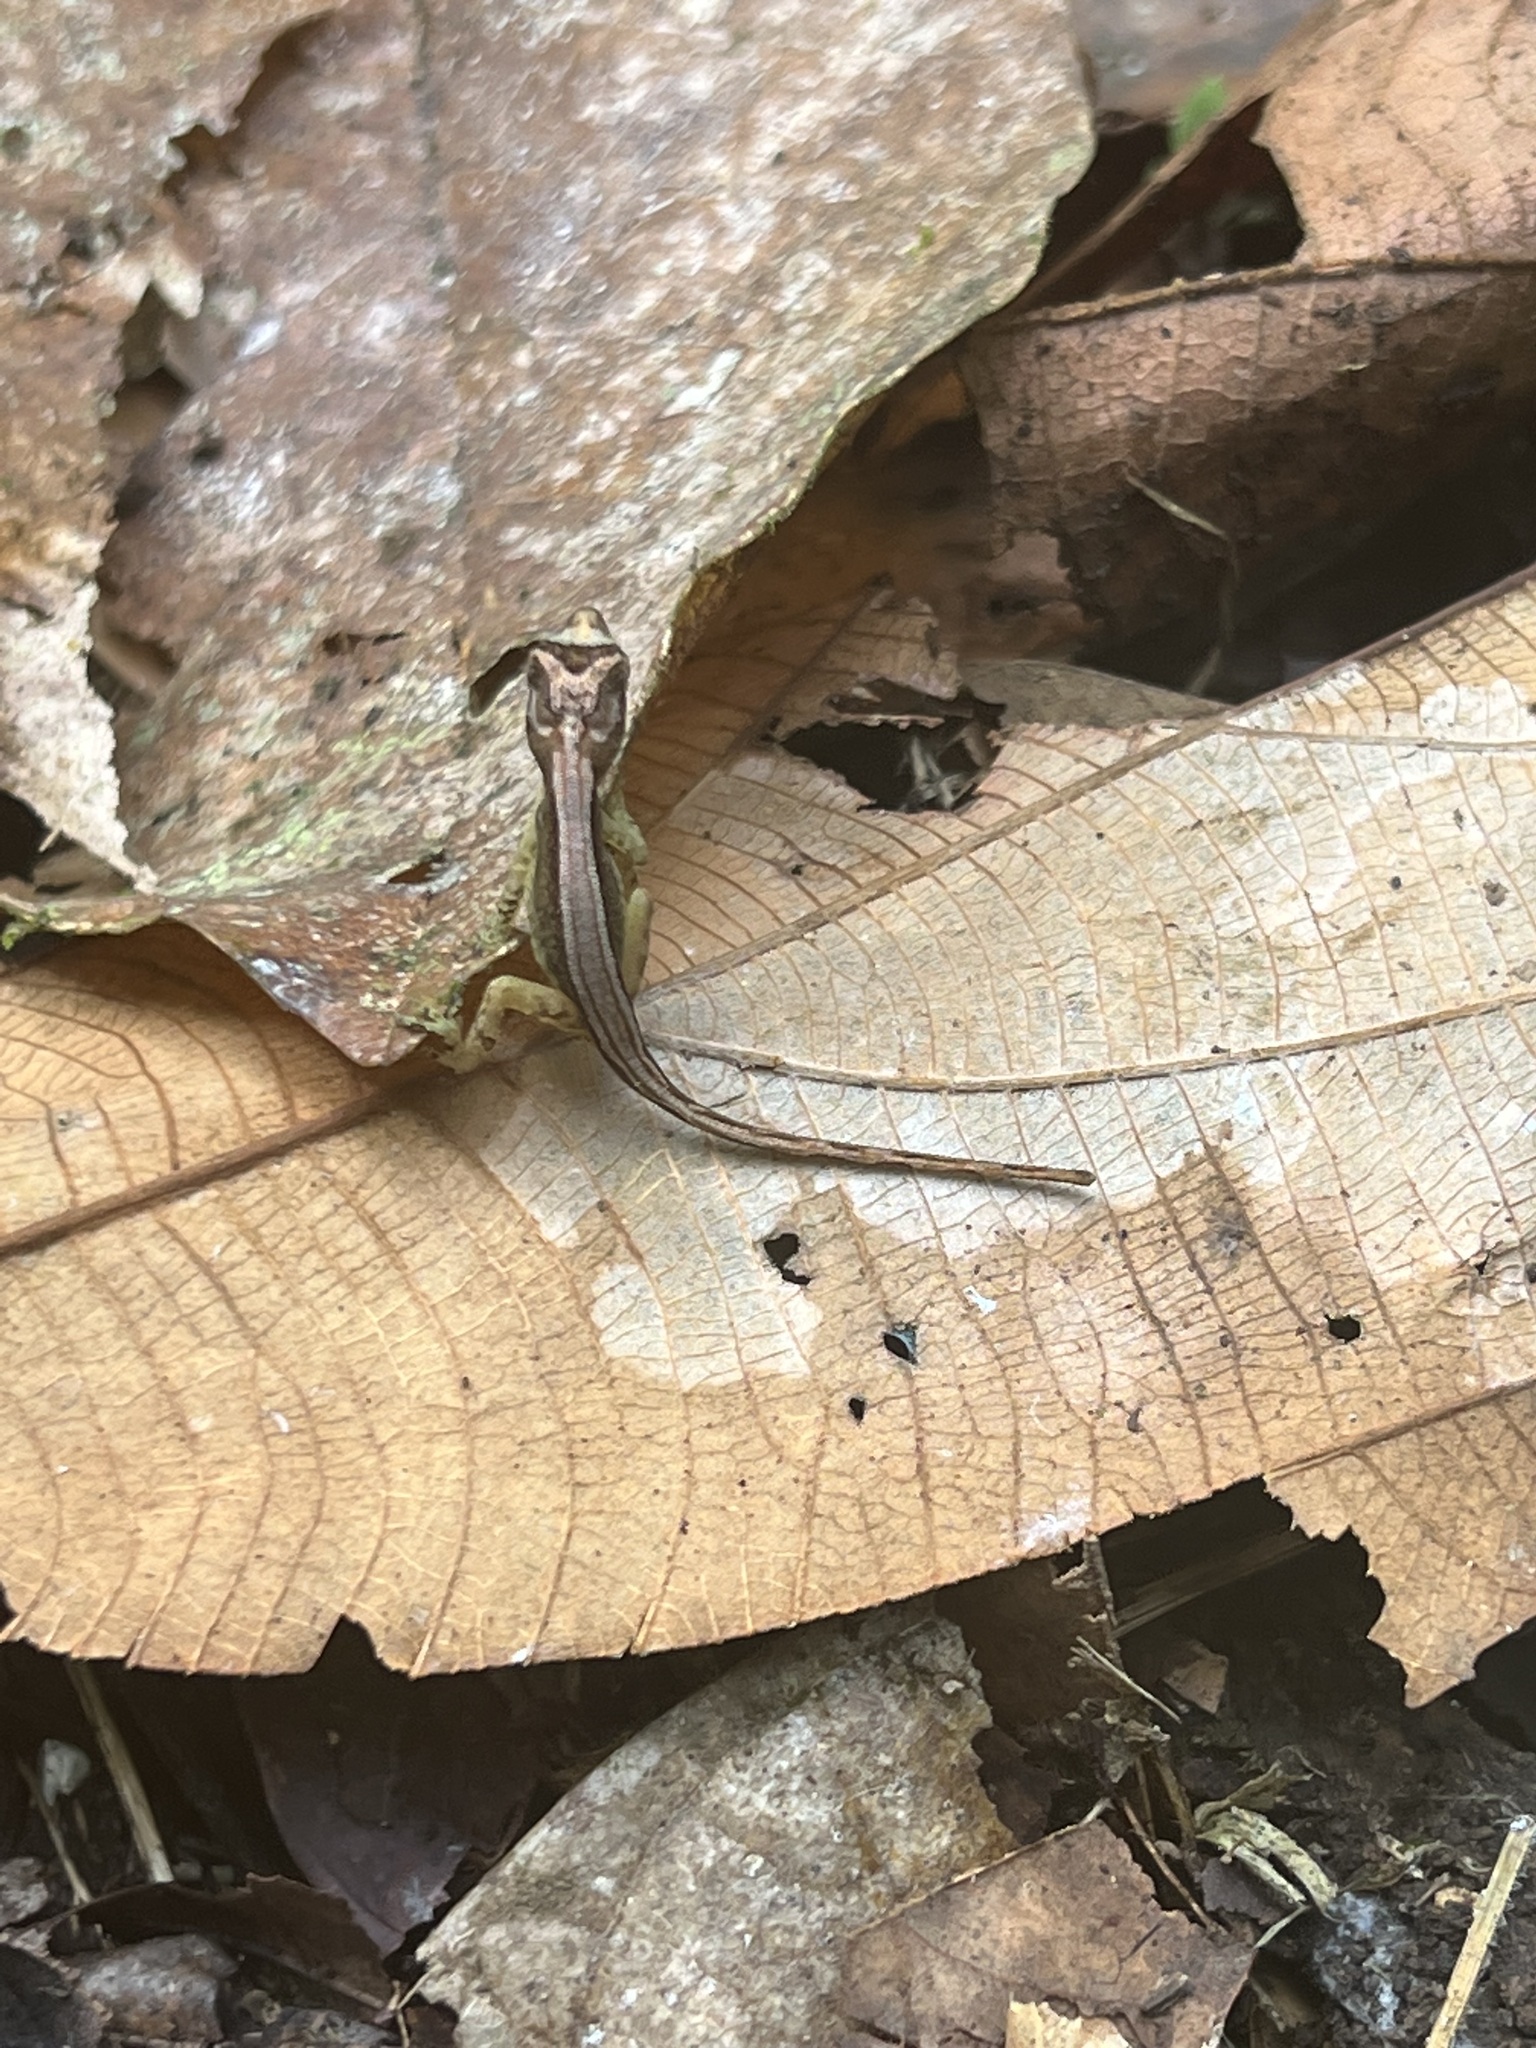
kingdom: Animalia
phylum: Chordata
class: Squamata
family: Dactyloidae
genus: Anolis
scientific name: Anolis humilis
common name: Humble anole
